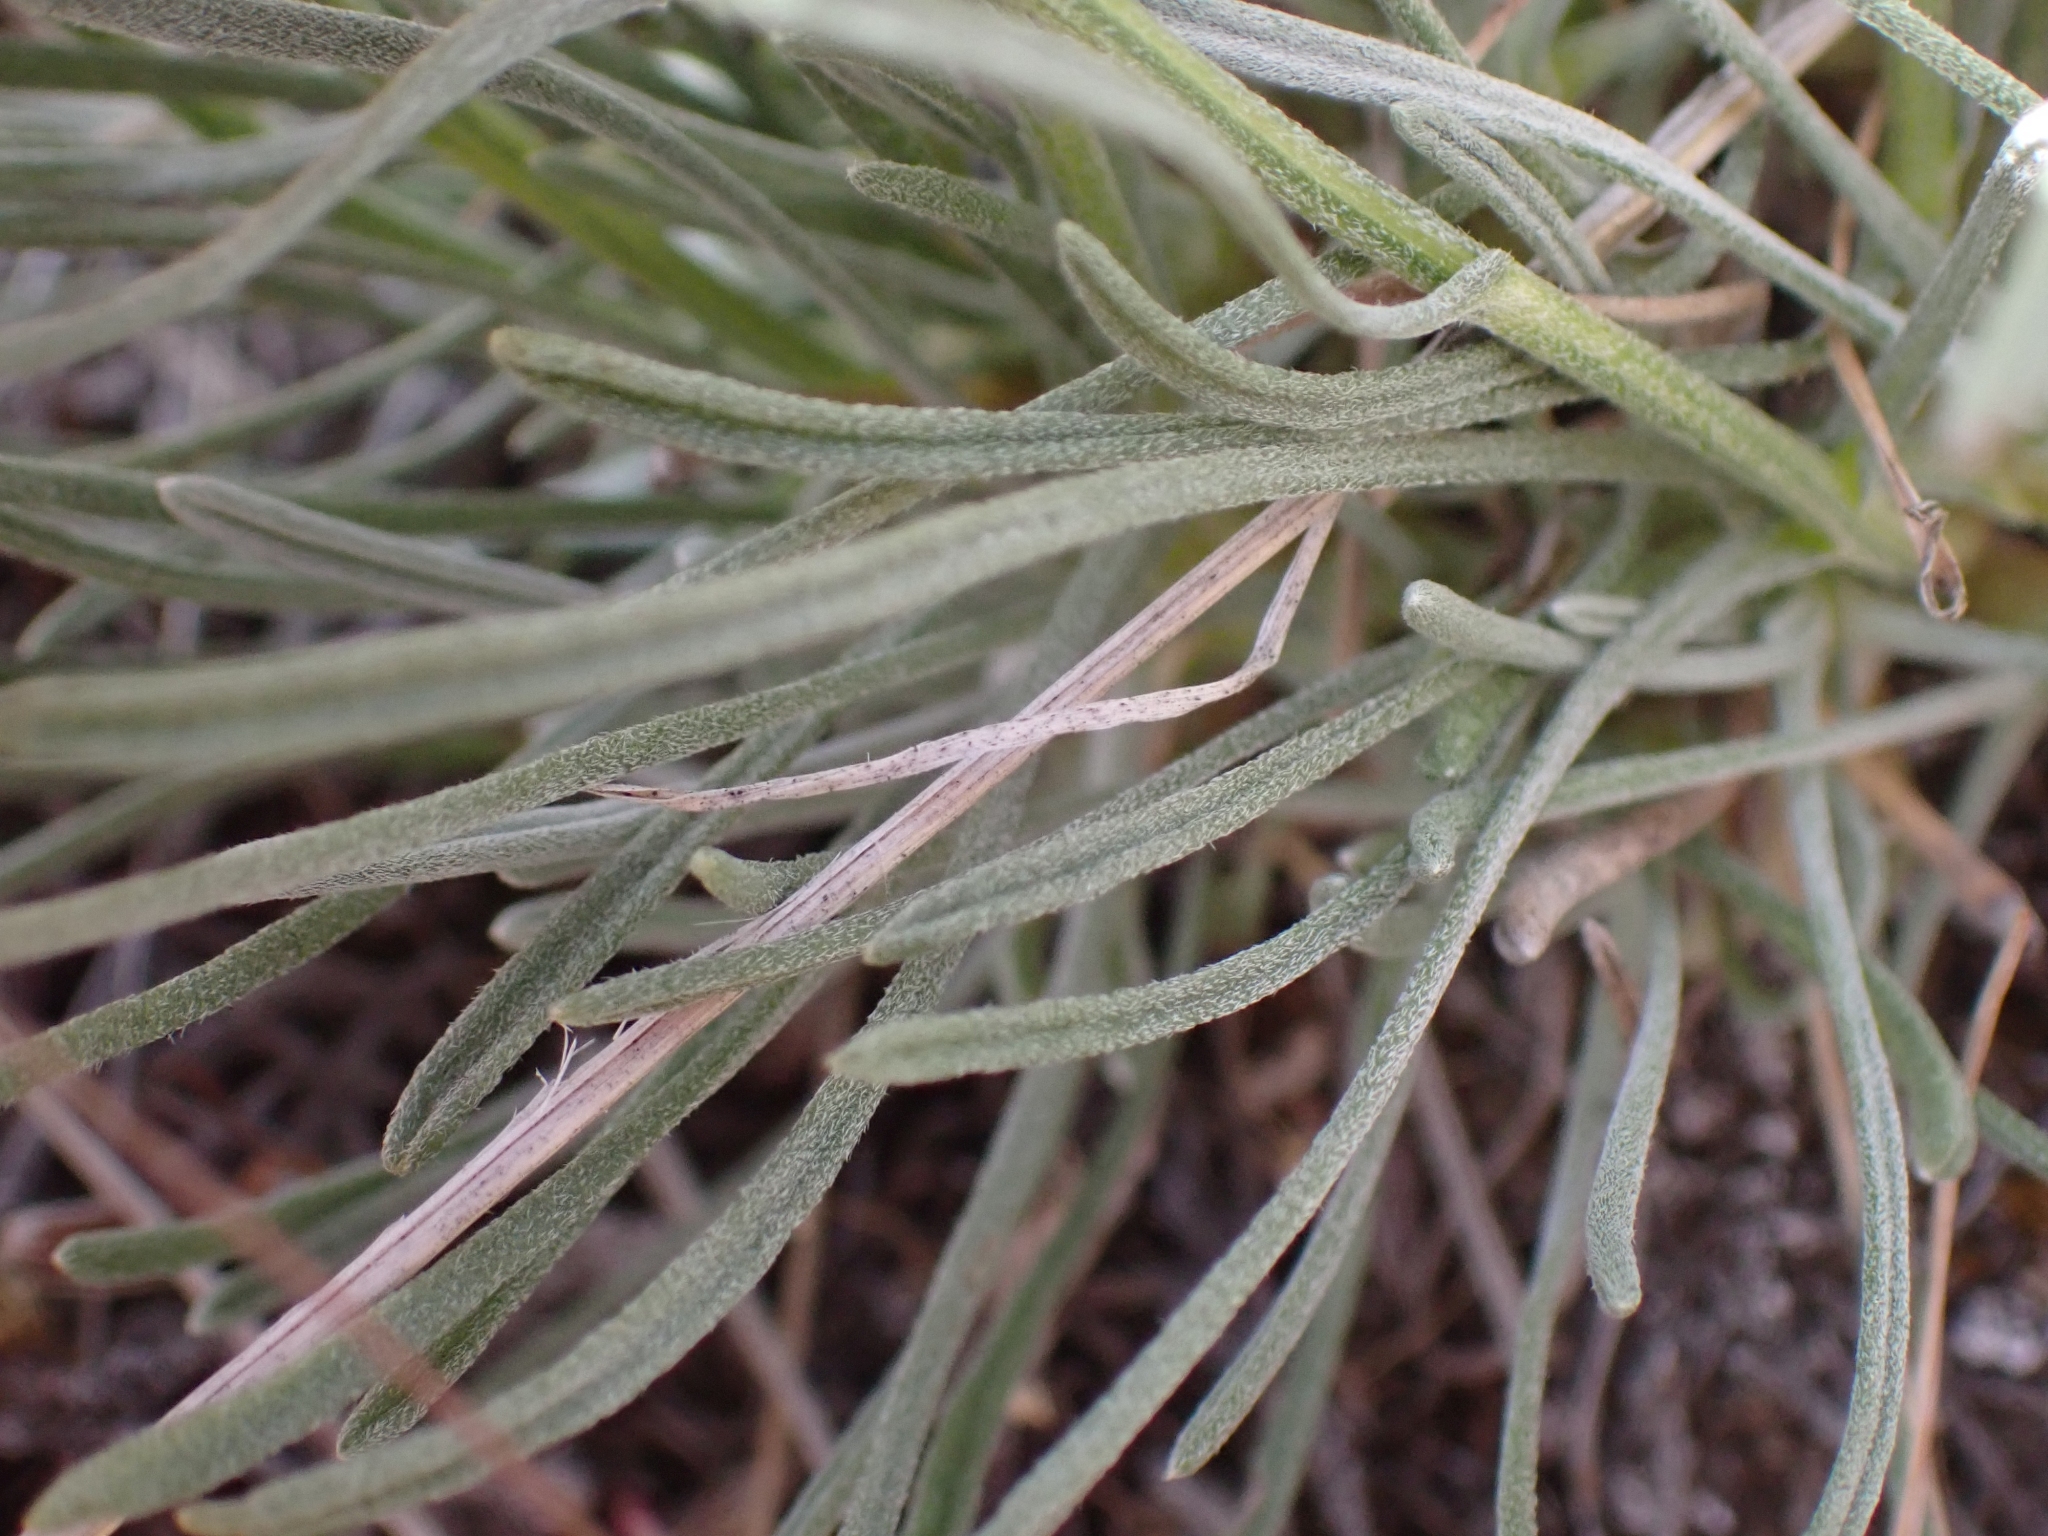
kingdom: Plantae
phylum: Tracheophyta
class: Magnoliopsida
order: Asterales
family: Asteraceae
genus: Erigeron
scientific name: Erigeron linearis
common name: Desert yellow fleabane
